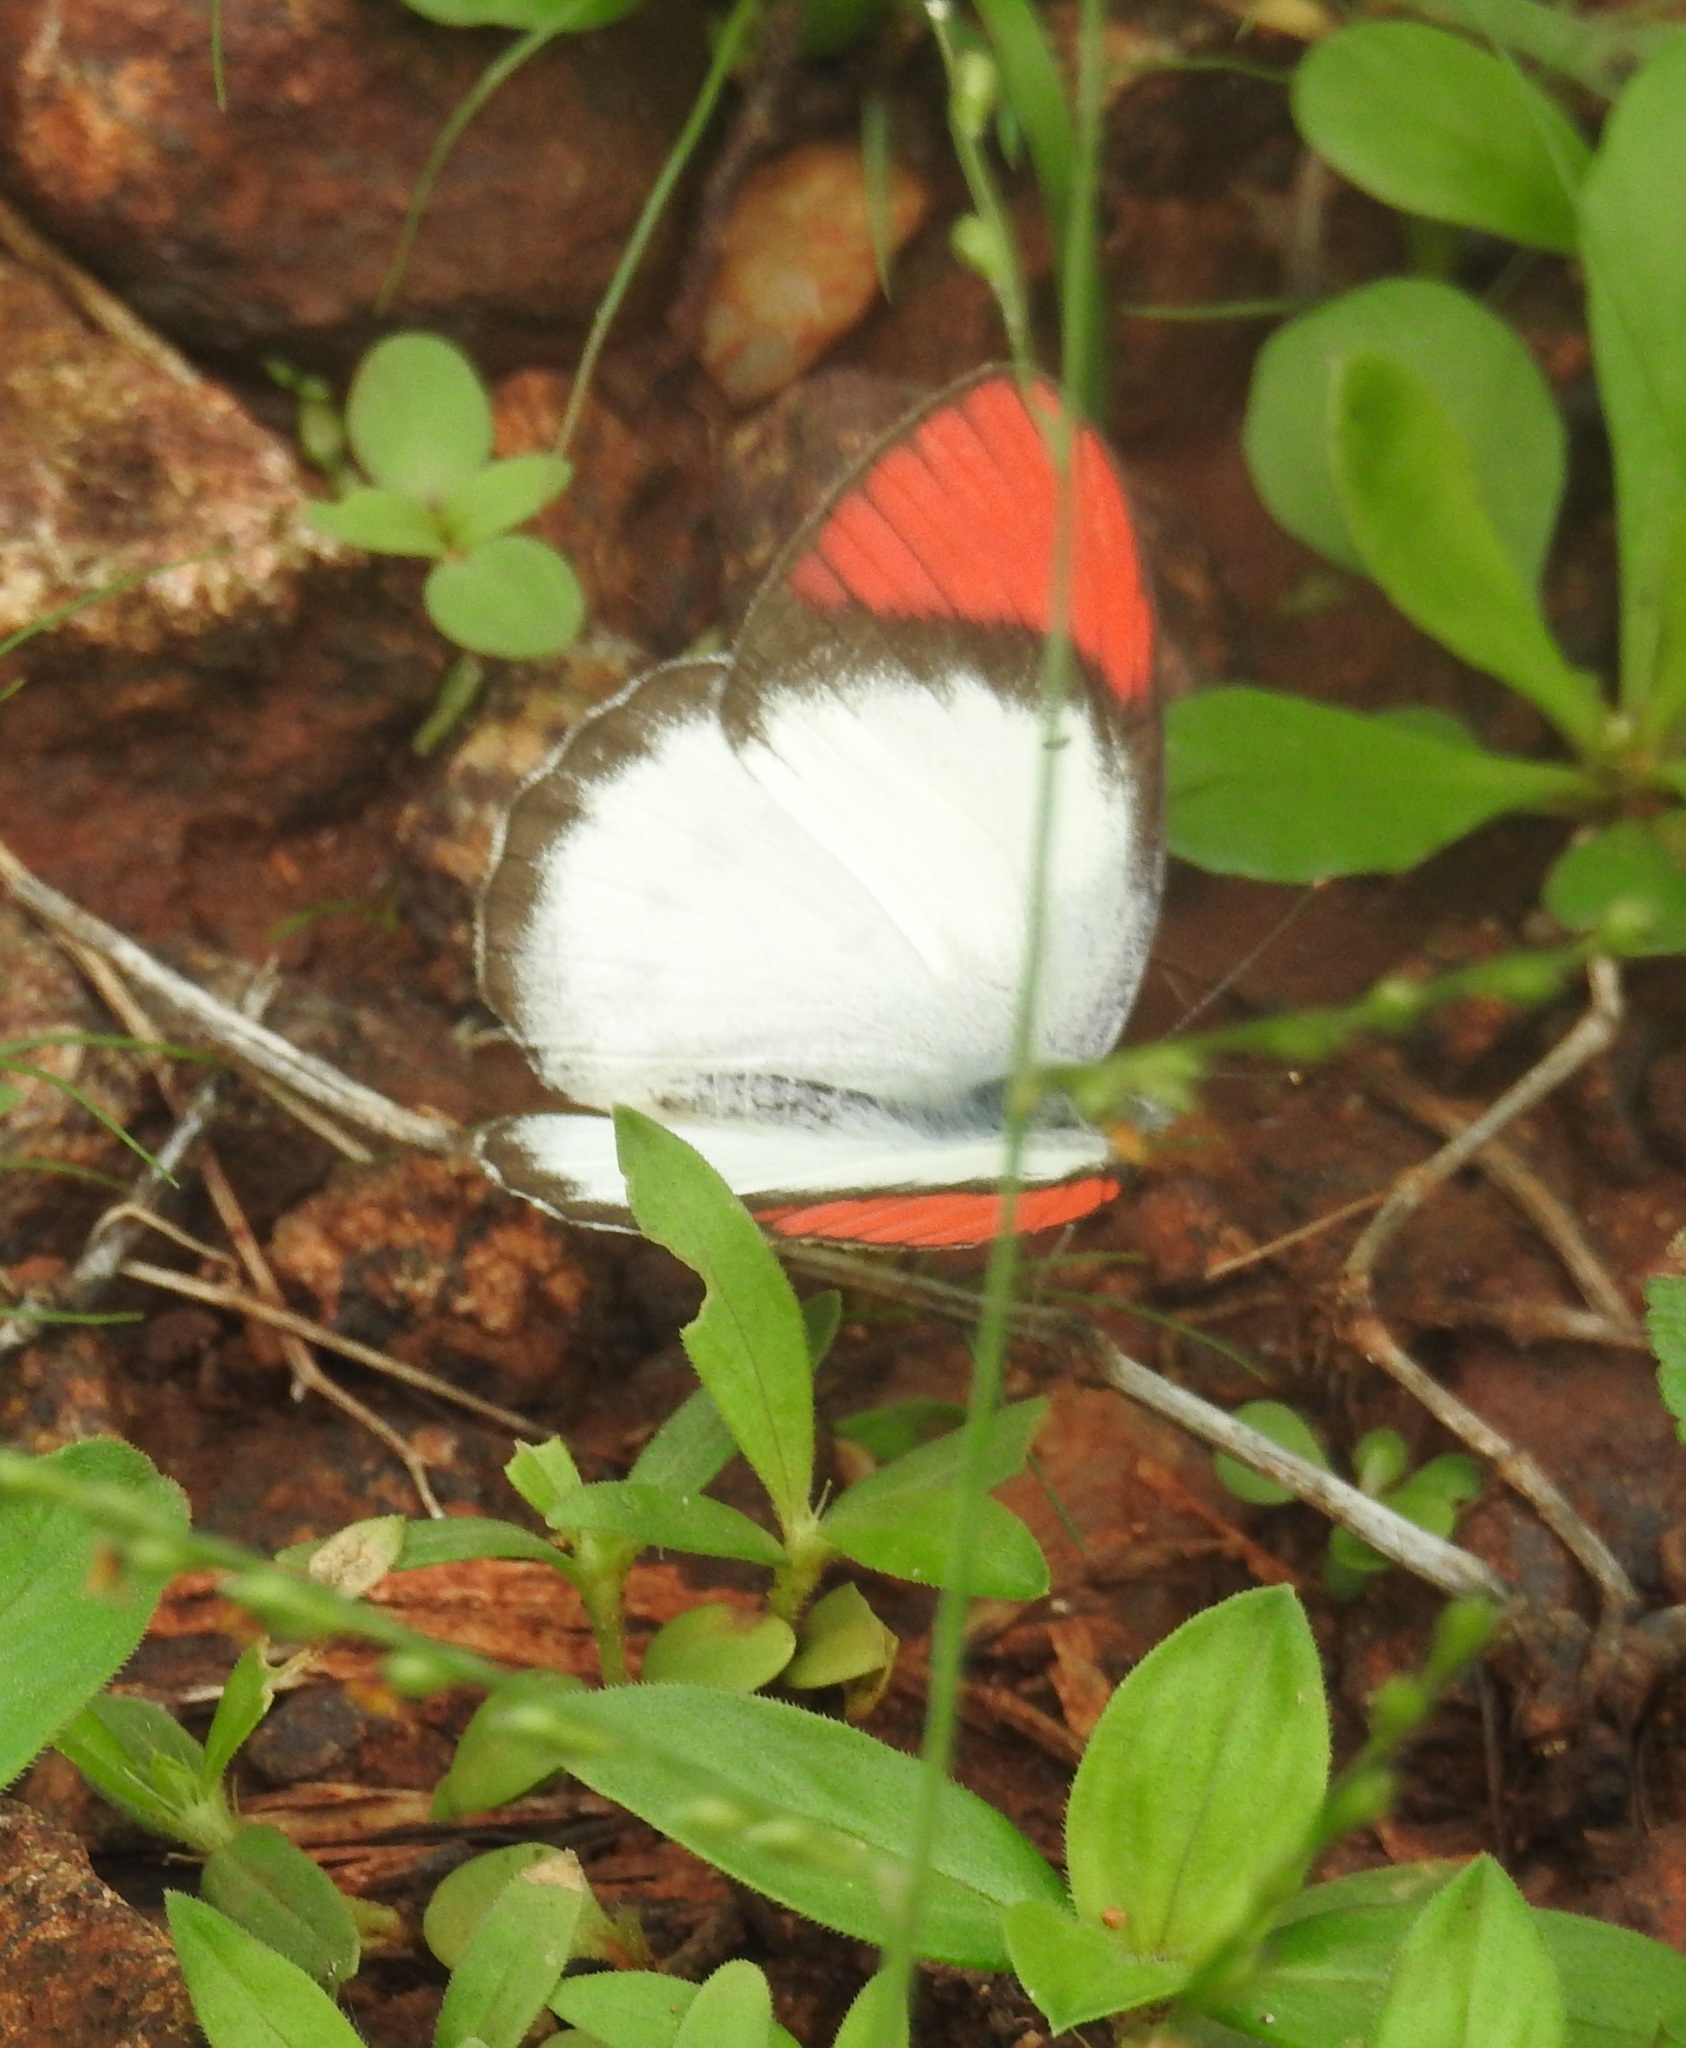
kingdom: Animalia
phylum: Arthropoda
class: Insecta
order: Lepidoptera
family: Pieridae
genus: Colotis
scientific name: Colotis danae
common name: Crimson tip
